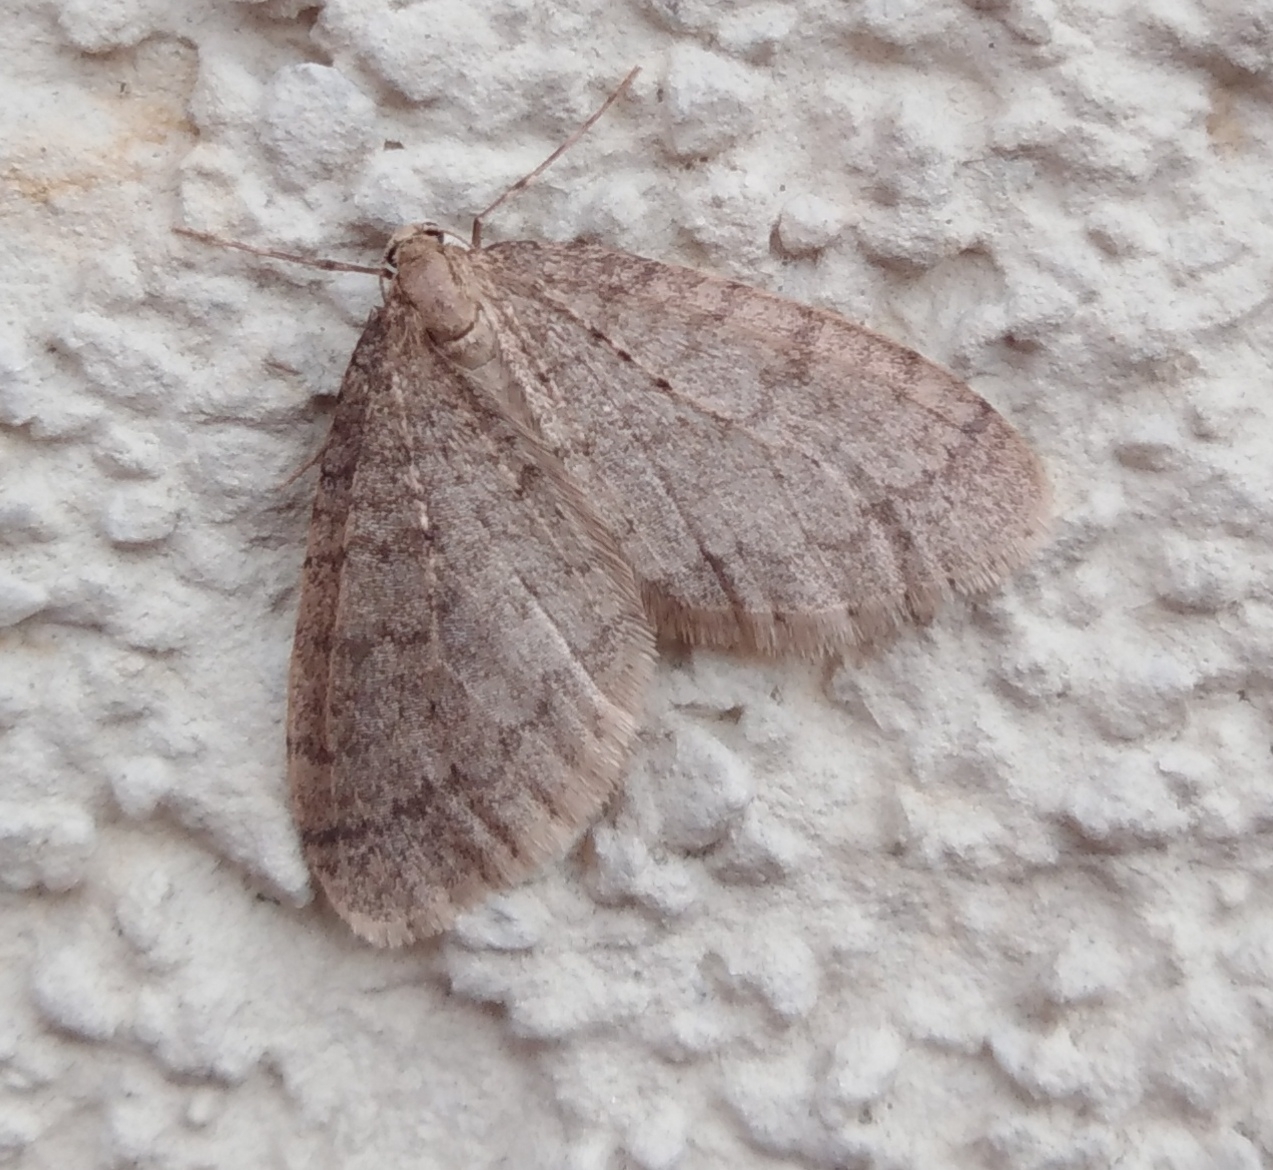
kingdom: Animalia
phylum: Arthropoda
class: Insecta
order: Lepidoptera
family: Geometridae
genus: Operophtera
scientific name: Operophtera brumata
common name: Winter moth
